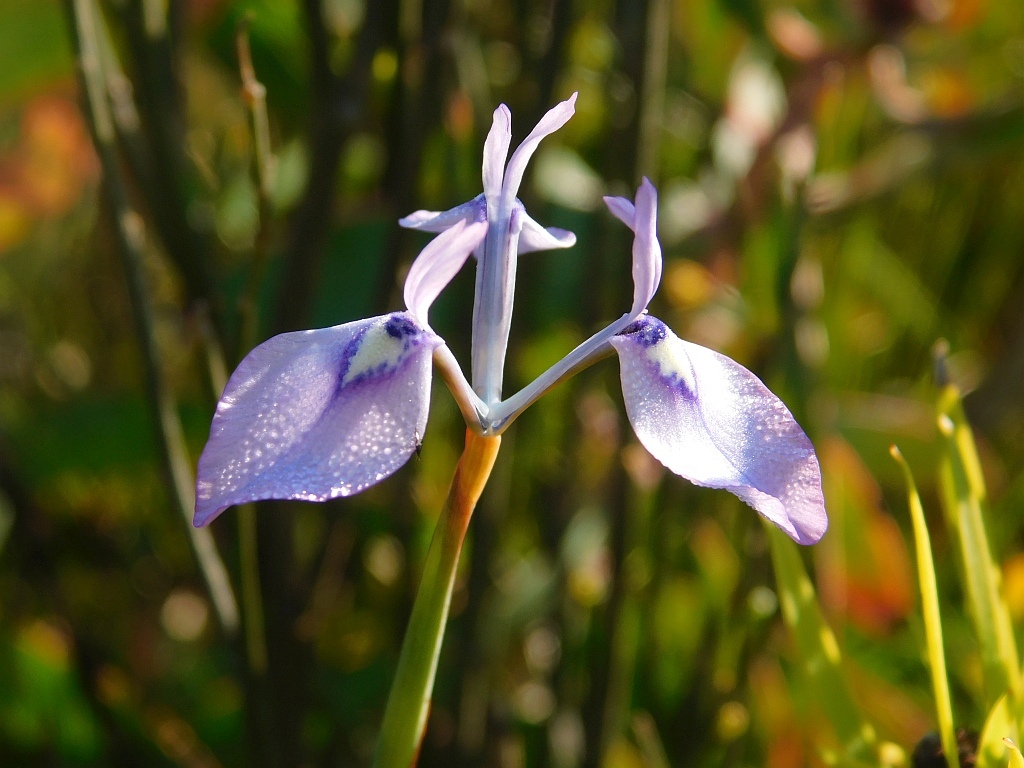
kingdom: Plantae
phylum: Tracheophyta
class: Liliopsida
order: Asparagales
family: Iridaceae
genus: Moraea
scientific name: Moraea tripetala
